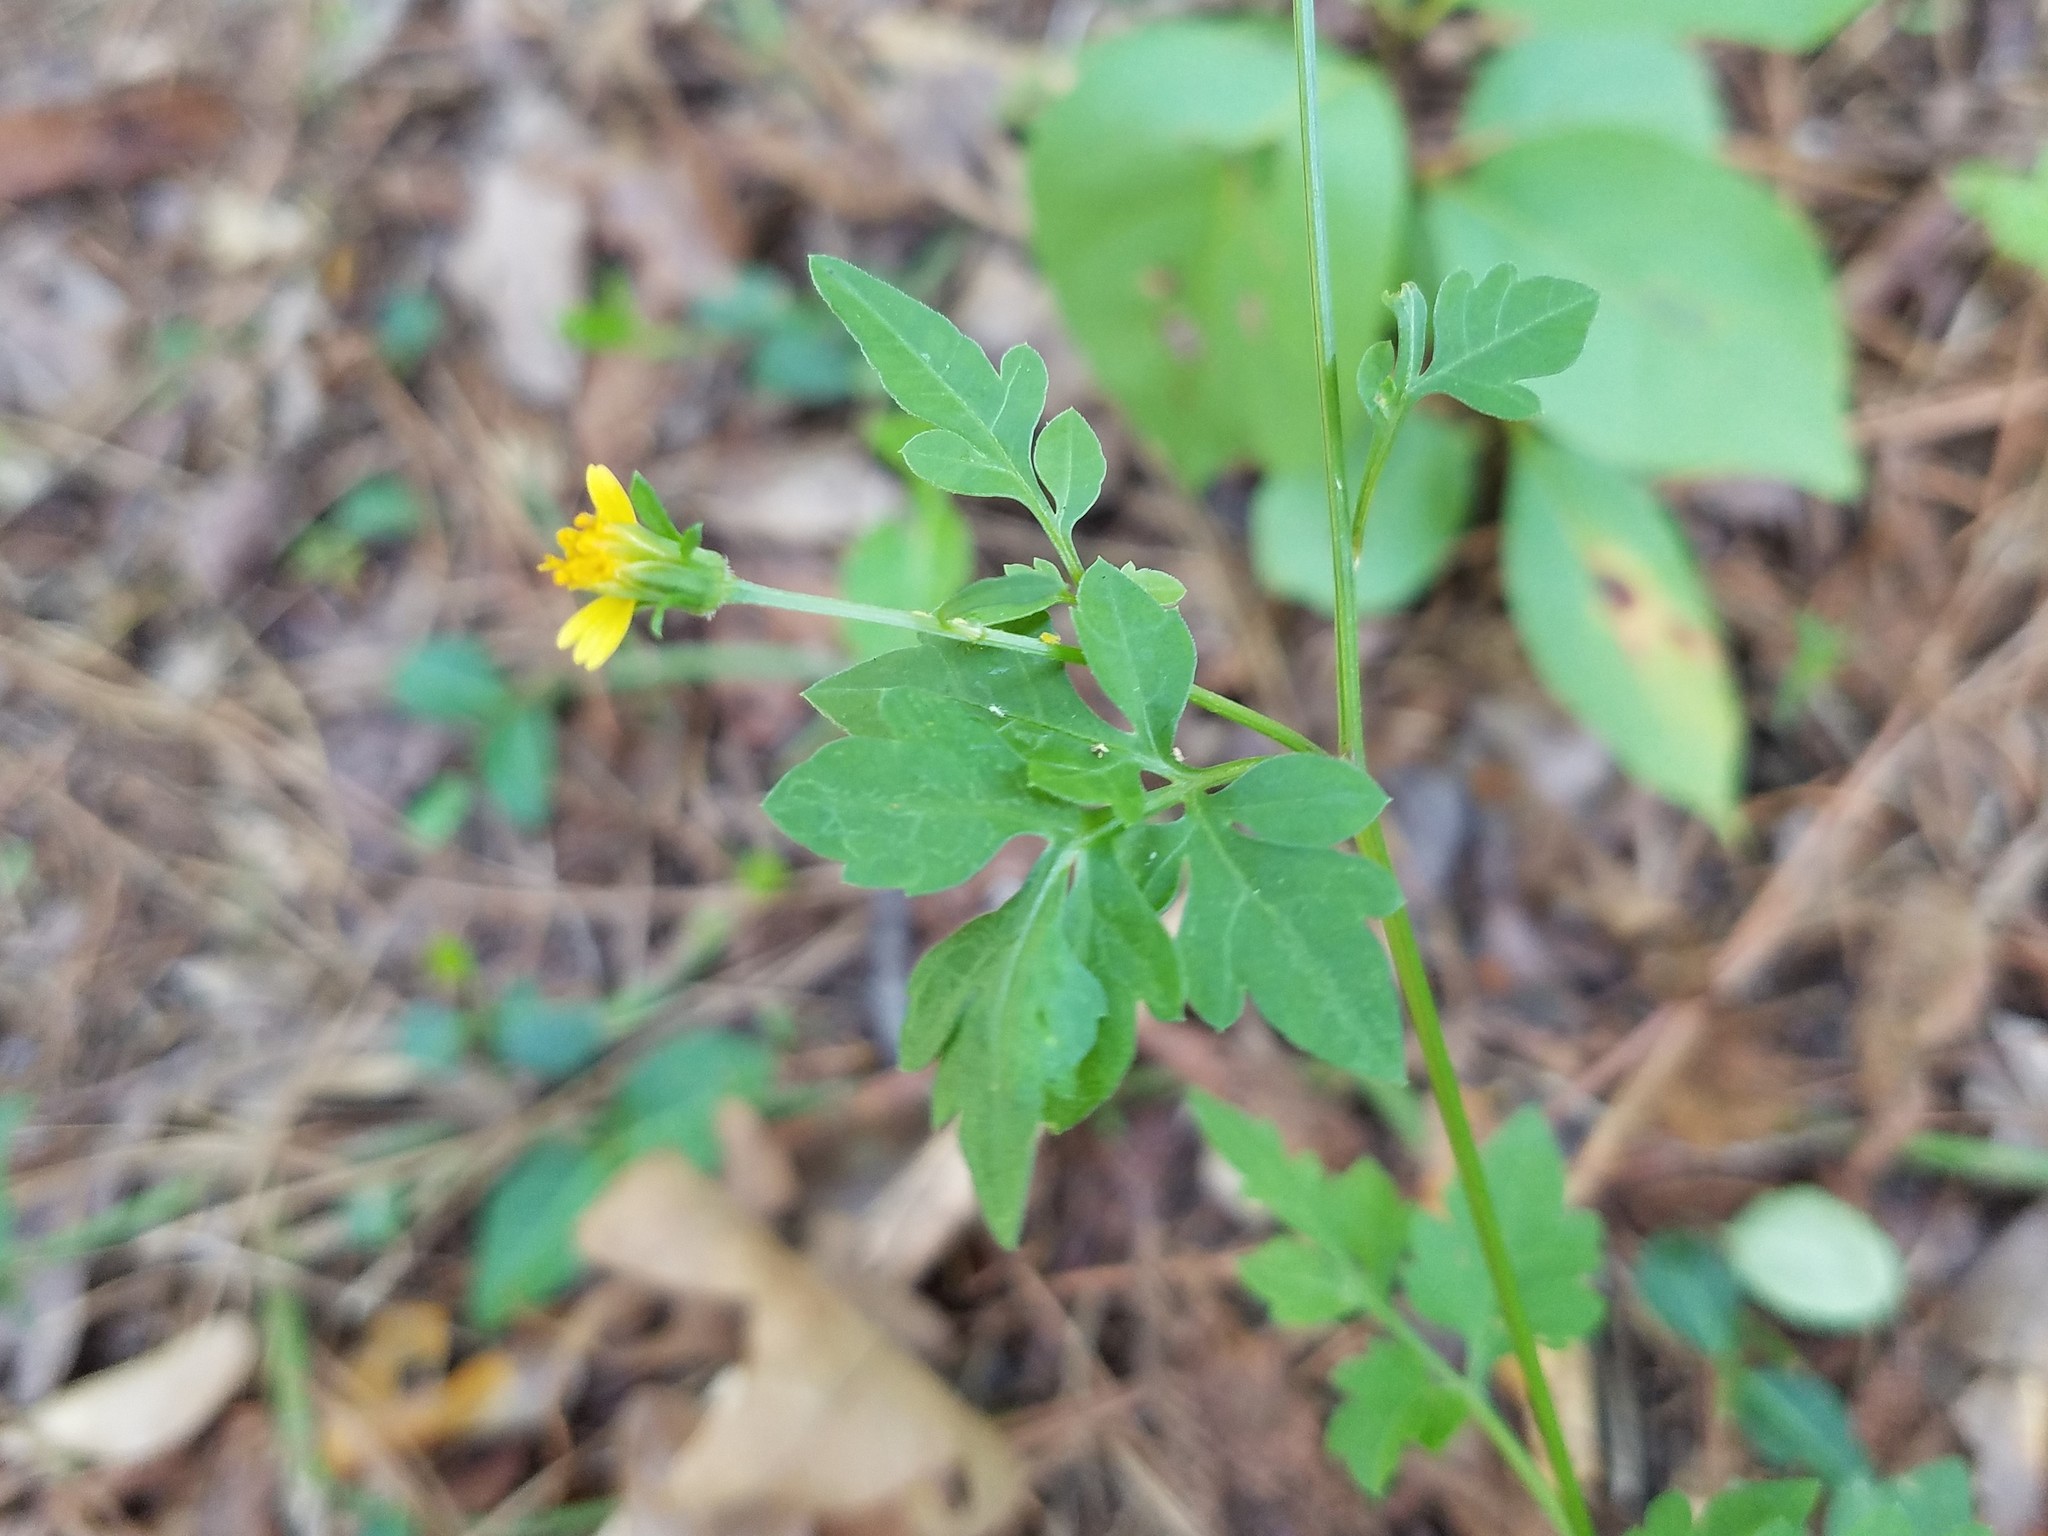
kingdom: Plantae
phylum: Tracheophyta
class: Magnoliopsida
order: Asterales
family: Asteraceae
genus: Bidens
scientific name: Bidens bipinnata
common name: Spanish-needles
